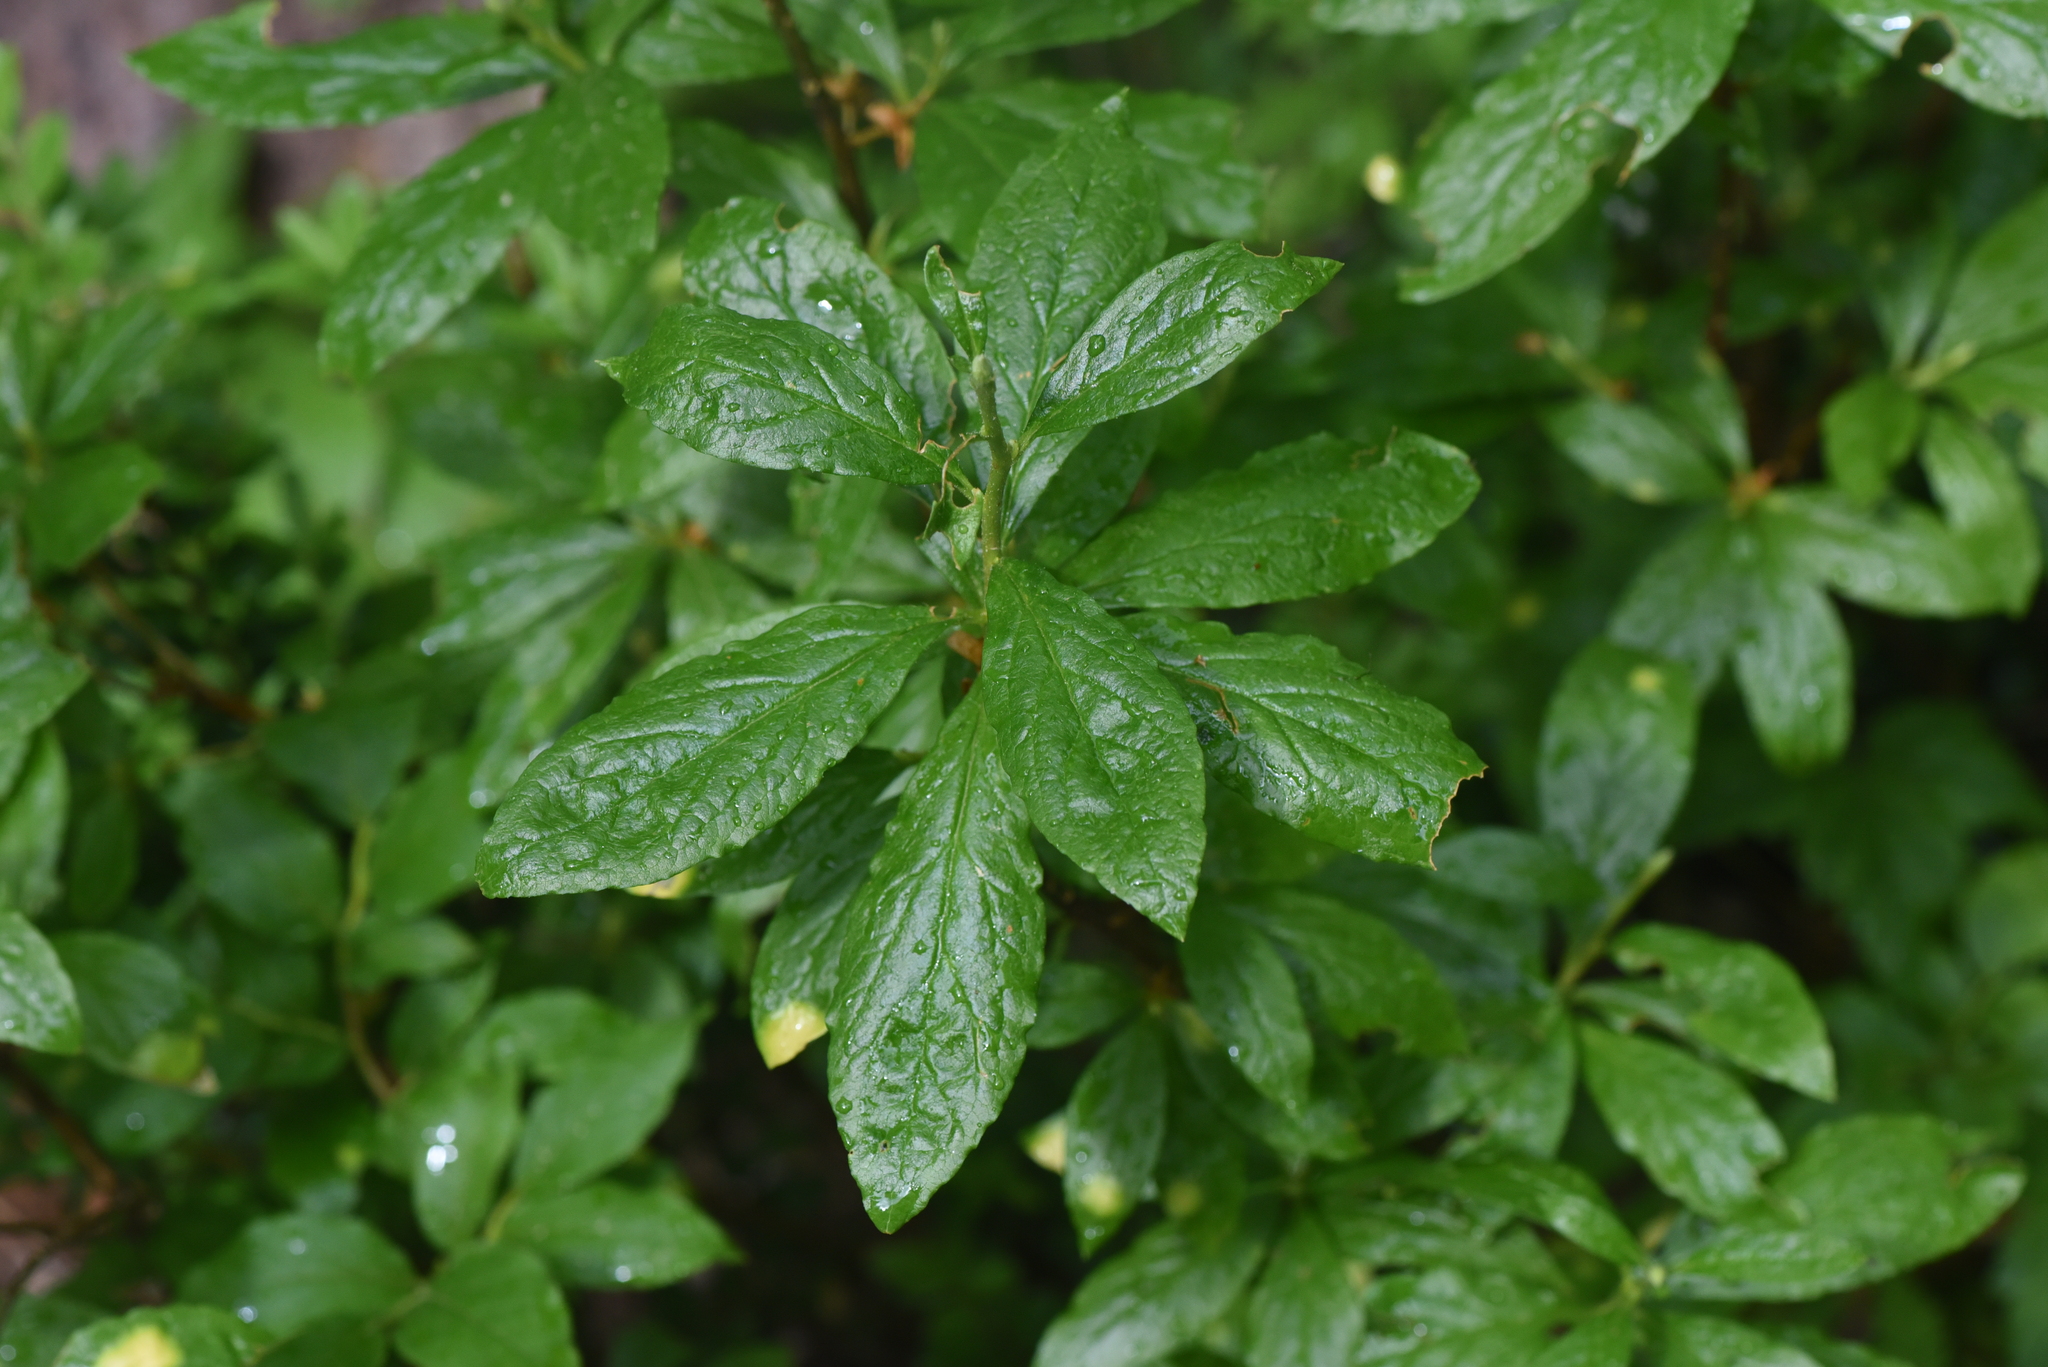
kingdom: Plantae
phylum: Tracheophyta
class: Magnoliopsida
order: Ericales
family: Ericaceae
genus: Rhododendron
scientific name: Rhododendron albiflorum
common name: White rhododendron
